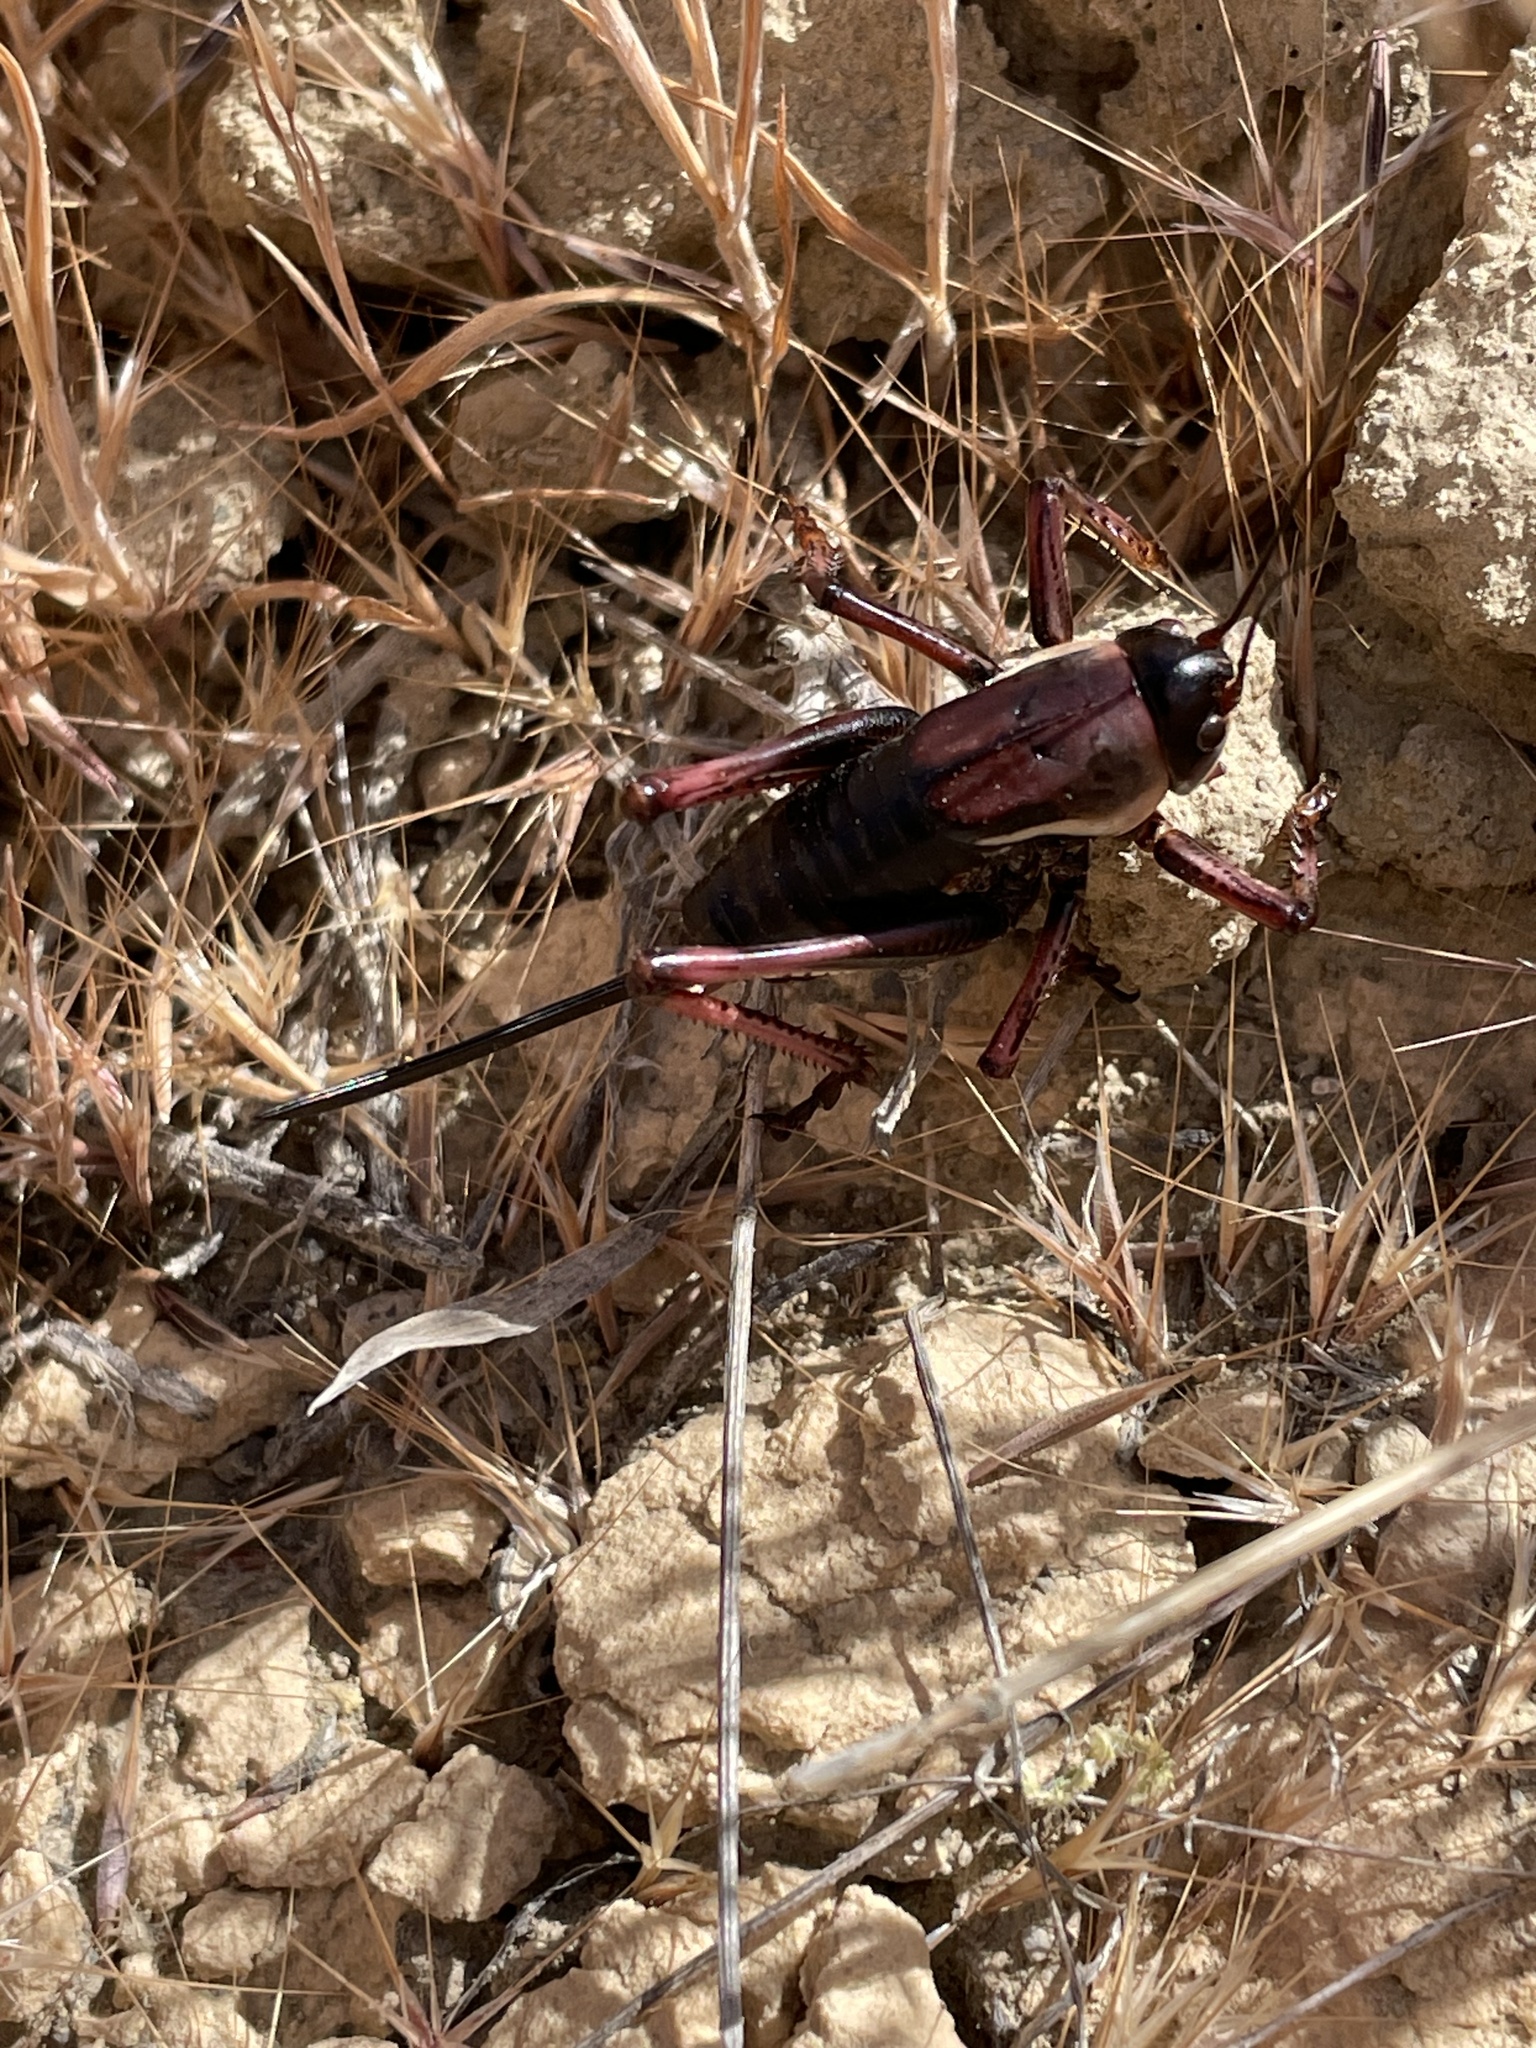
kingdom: Animalia
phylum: Arthropoda
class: Insecta
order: Orthoptera
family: Tettigoniidae
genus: Anabrus
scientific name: Anabrus simplex
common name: Mormon cricket
